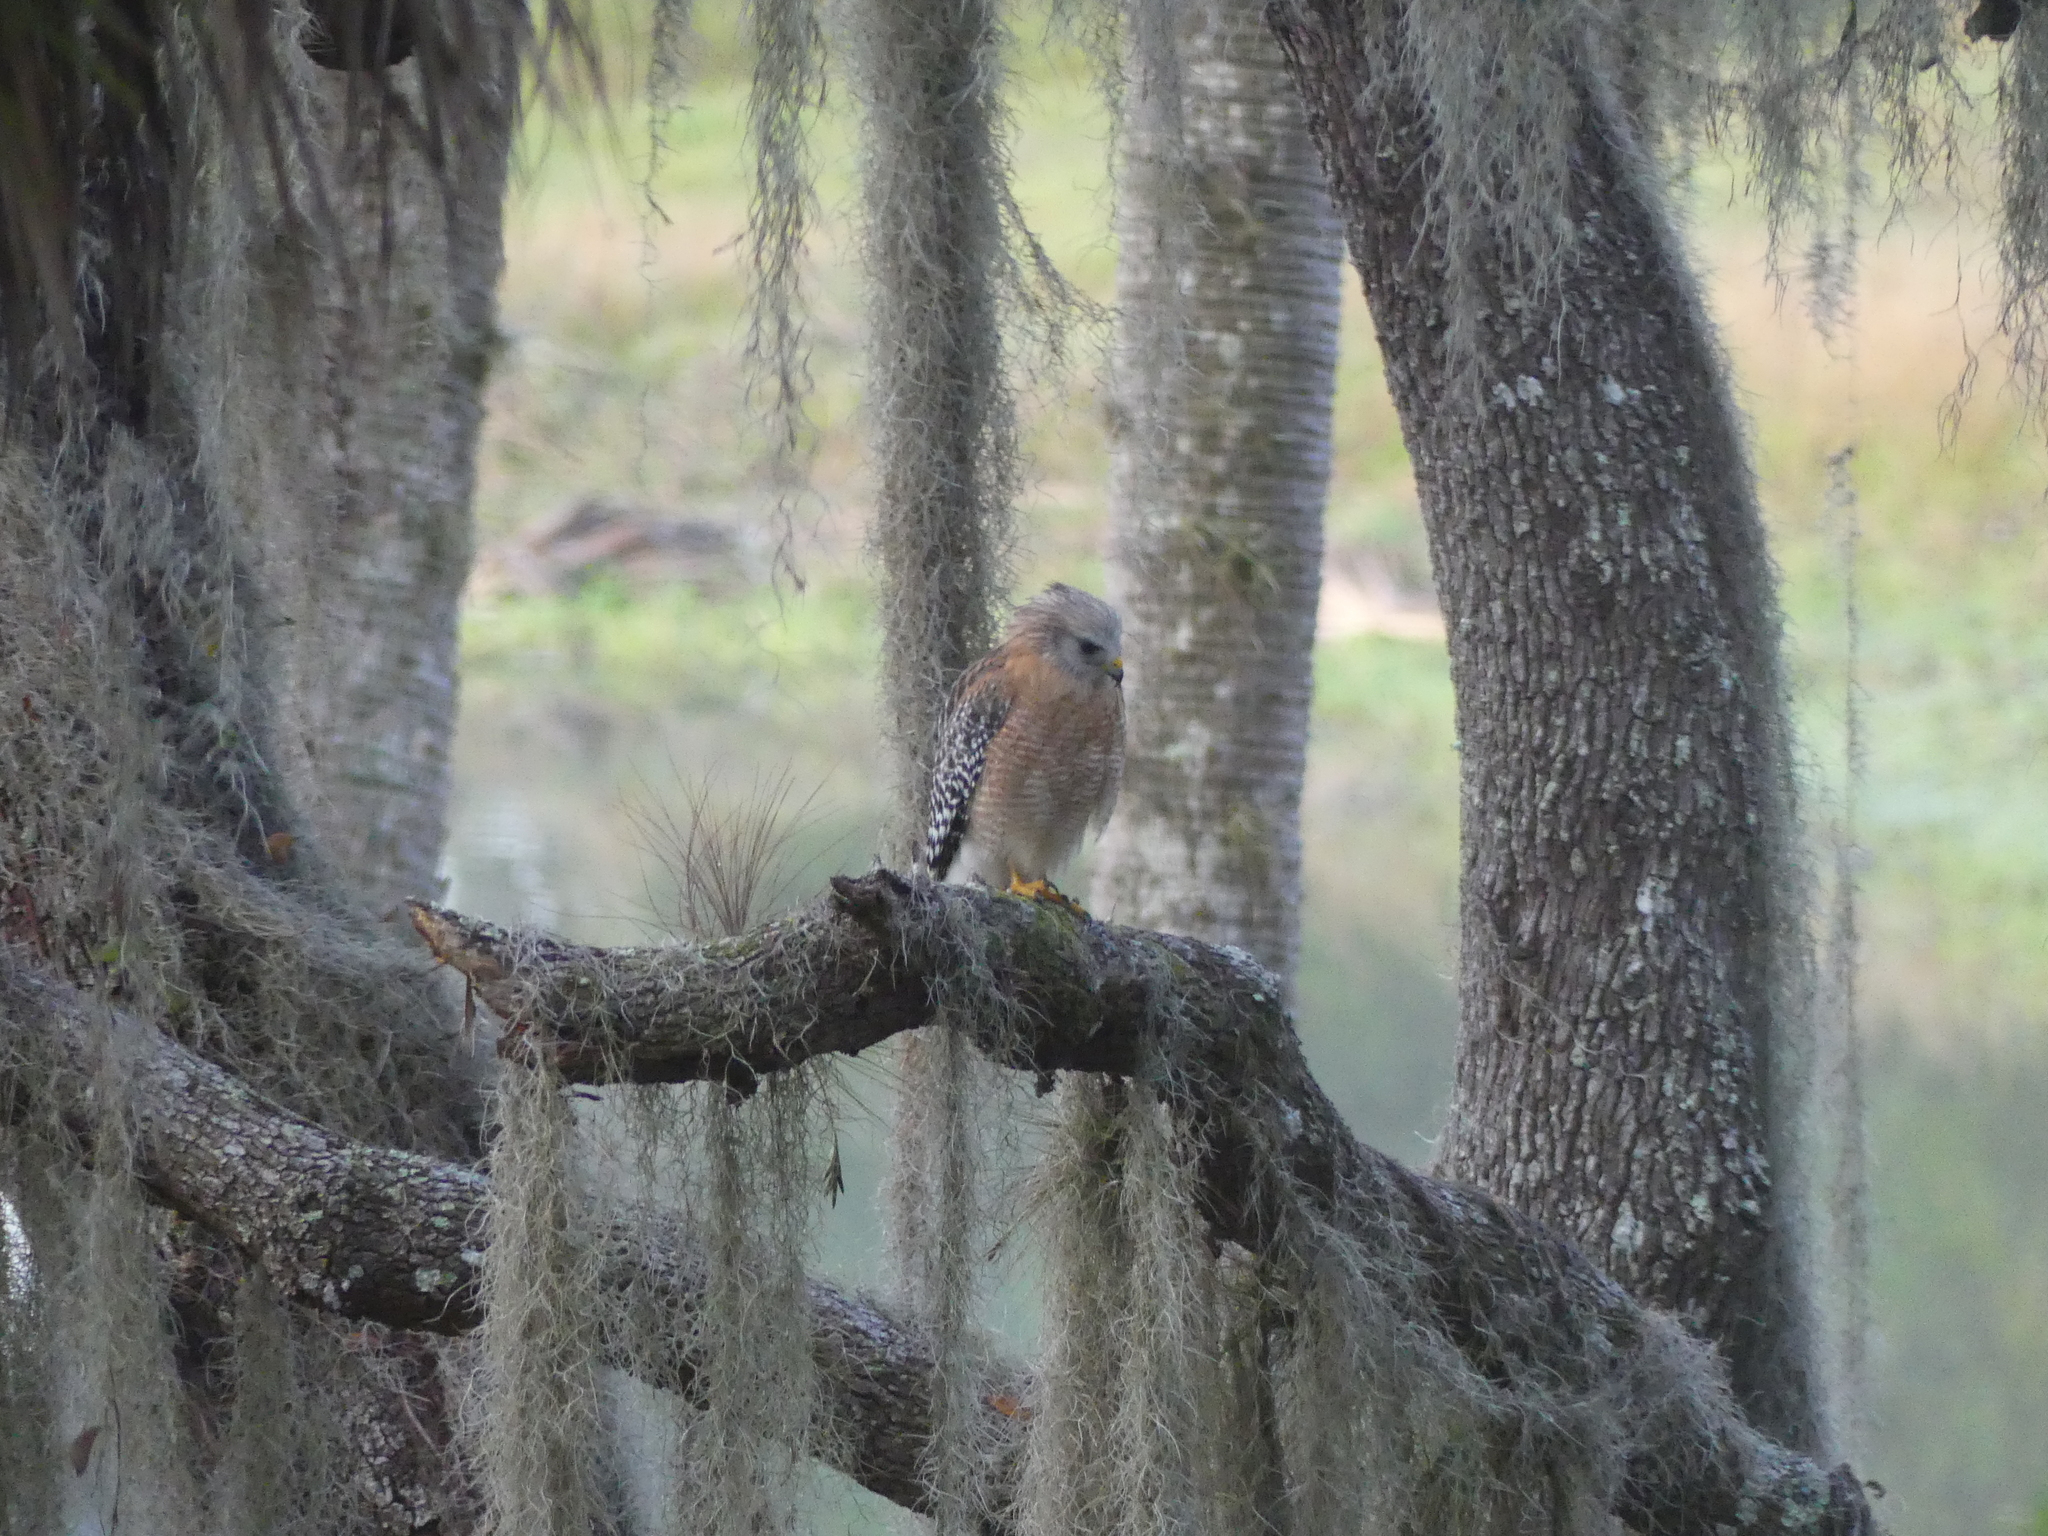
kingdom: Animalia
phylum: Chordata
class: Aves
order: Accipitriformes
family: Accipitridae
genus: Buteo
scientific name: Buteo lineatus
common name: Red-shouldered hawk
